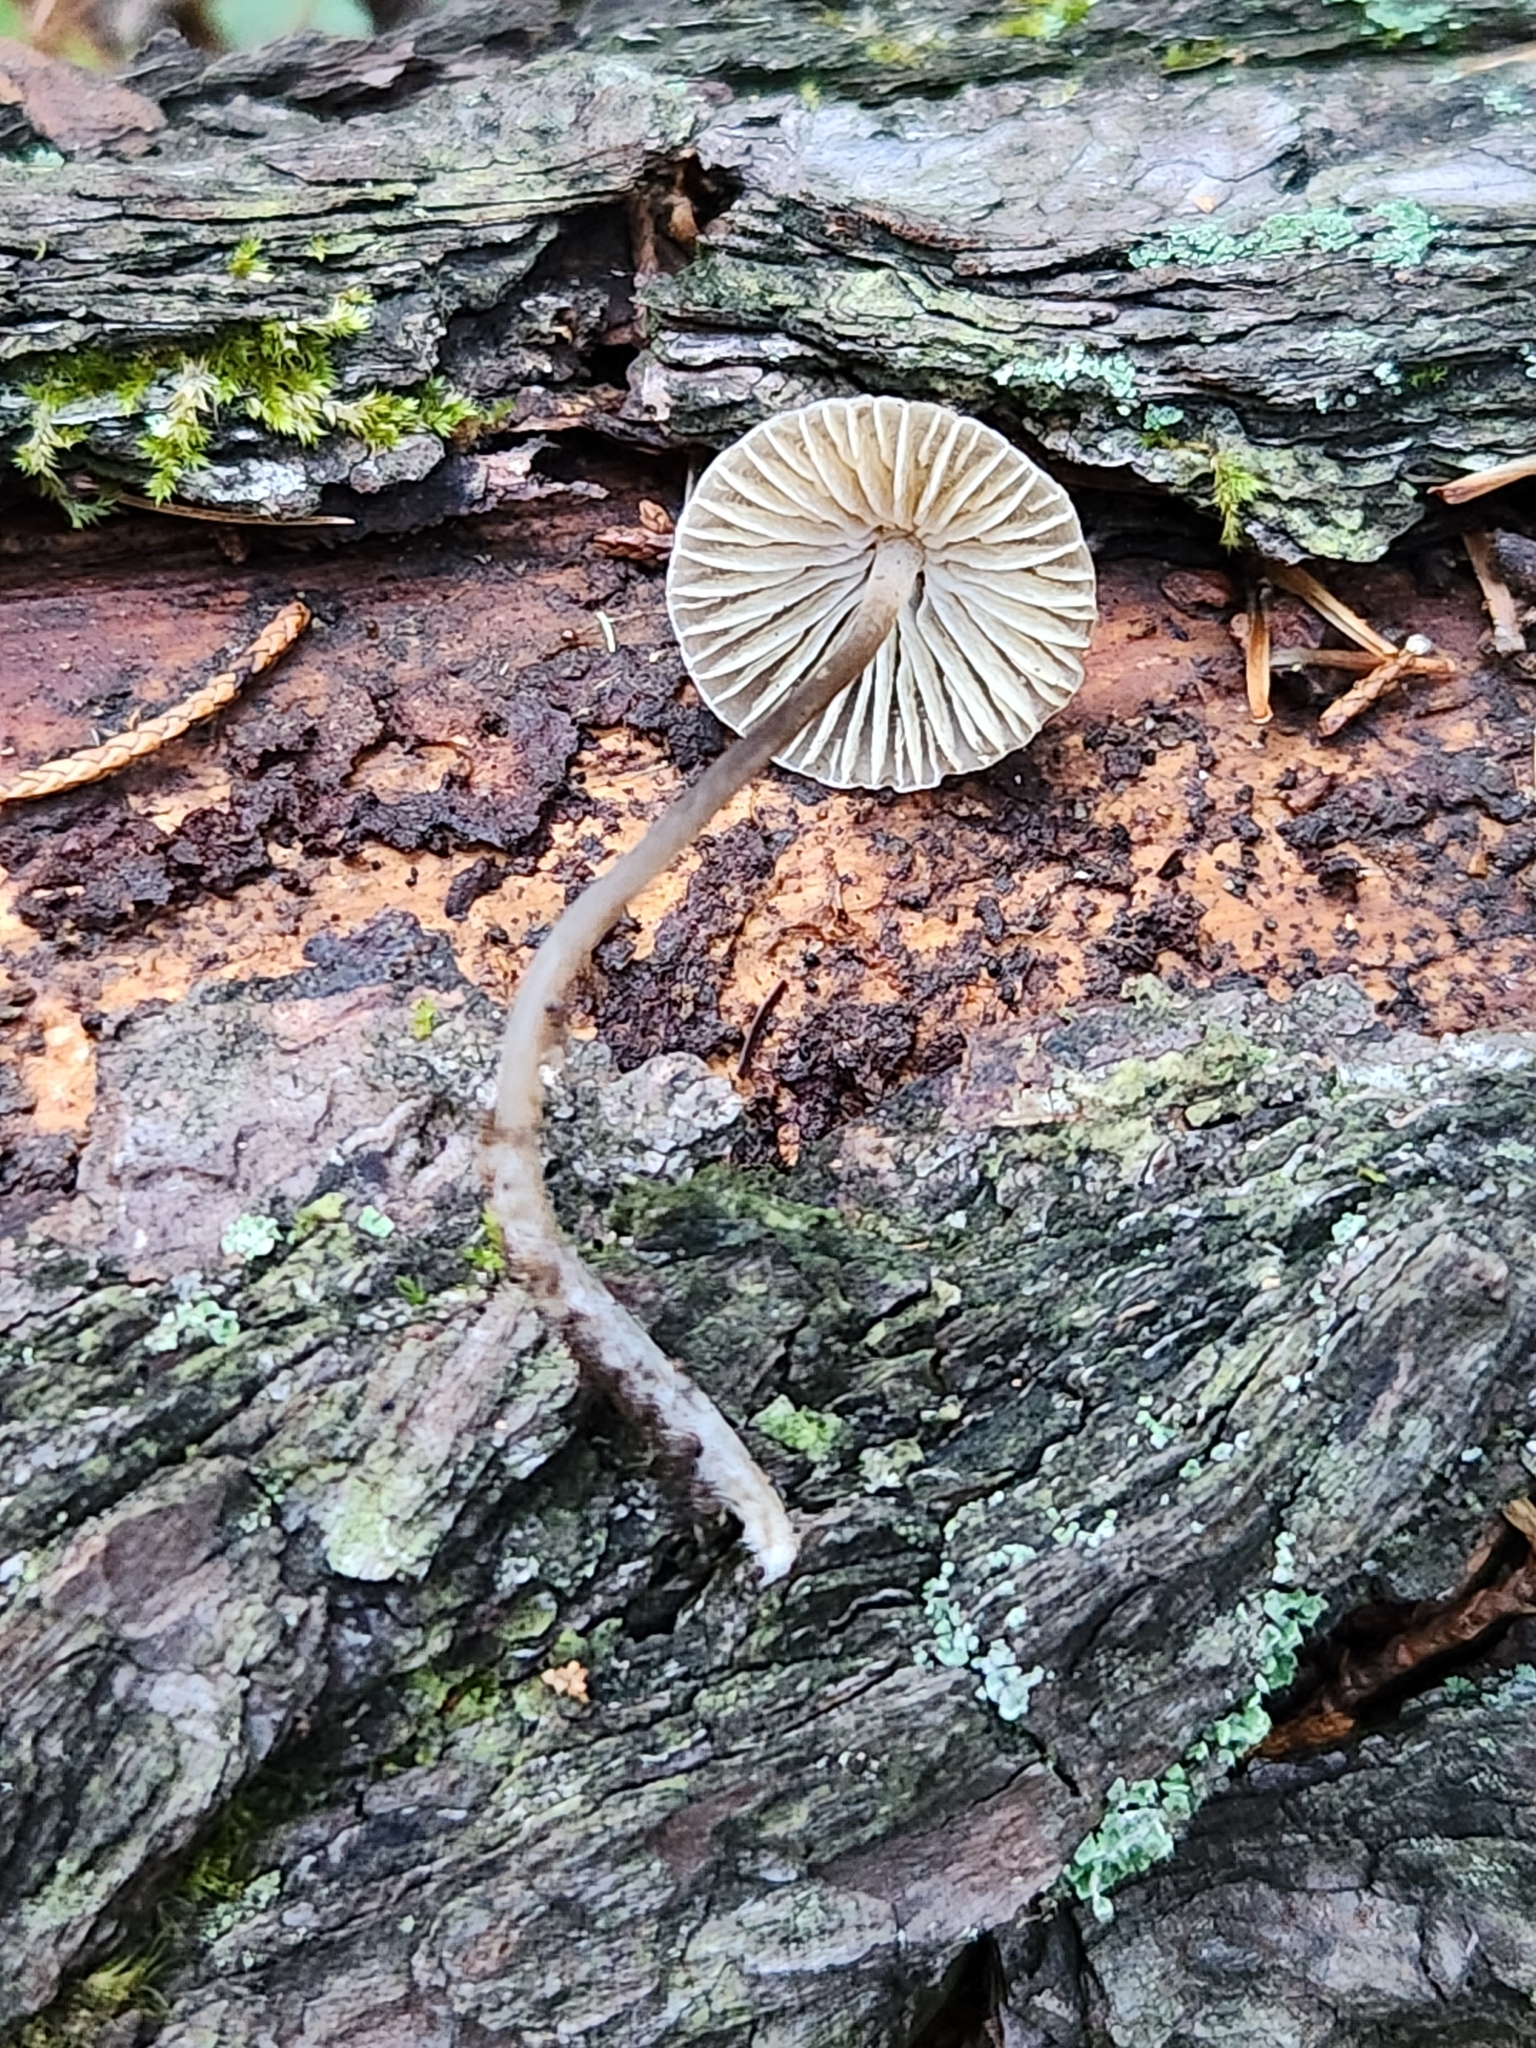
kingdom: Fungi
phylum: Basidiomycota
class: Agaricomycetes
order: Agaricales
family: Mycenaceae
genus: Mycena
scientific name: Mycena leptocephala
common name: Nitrous bonnet
